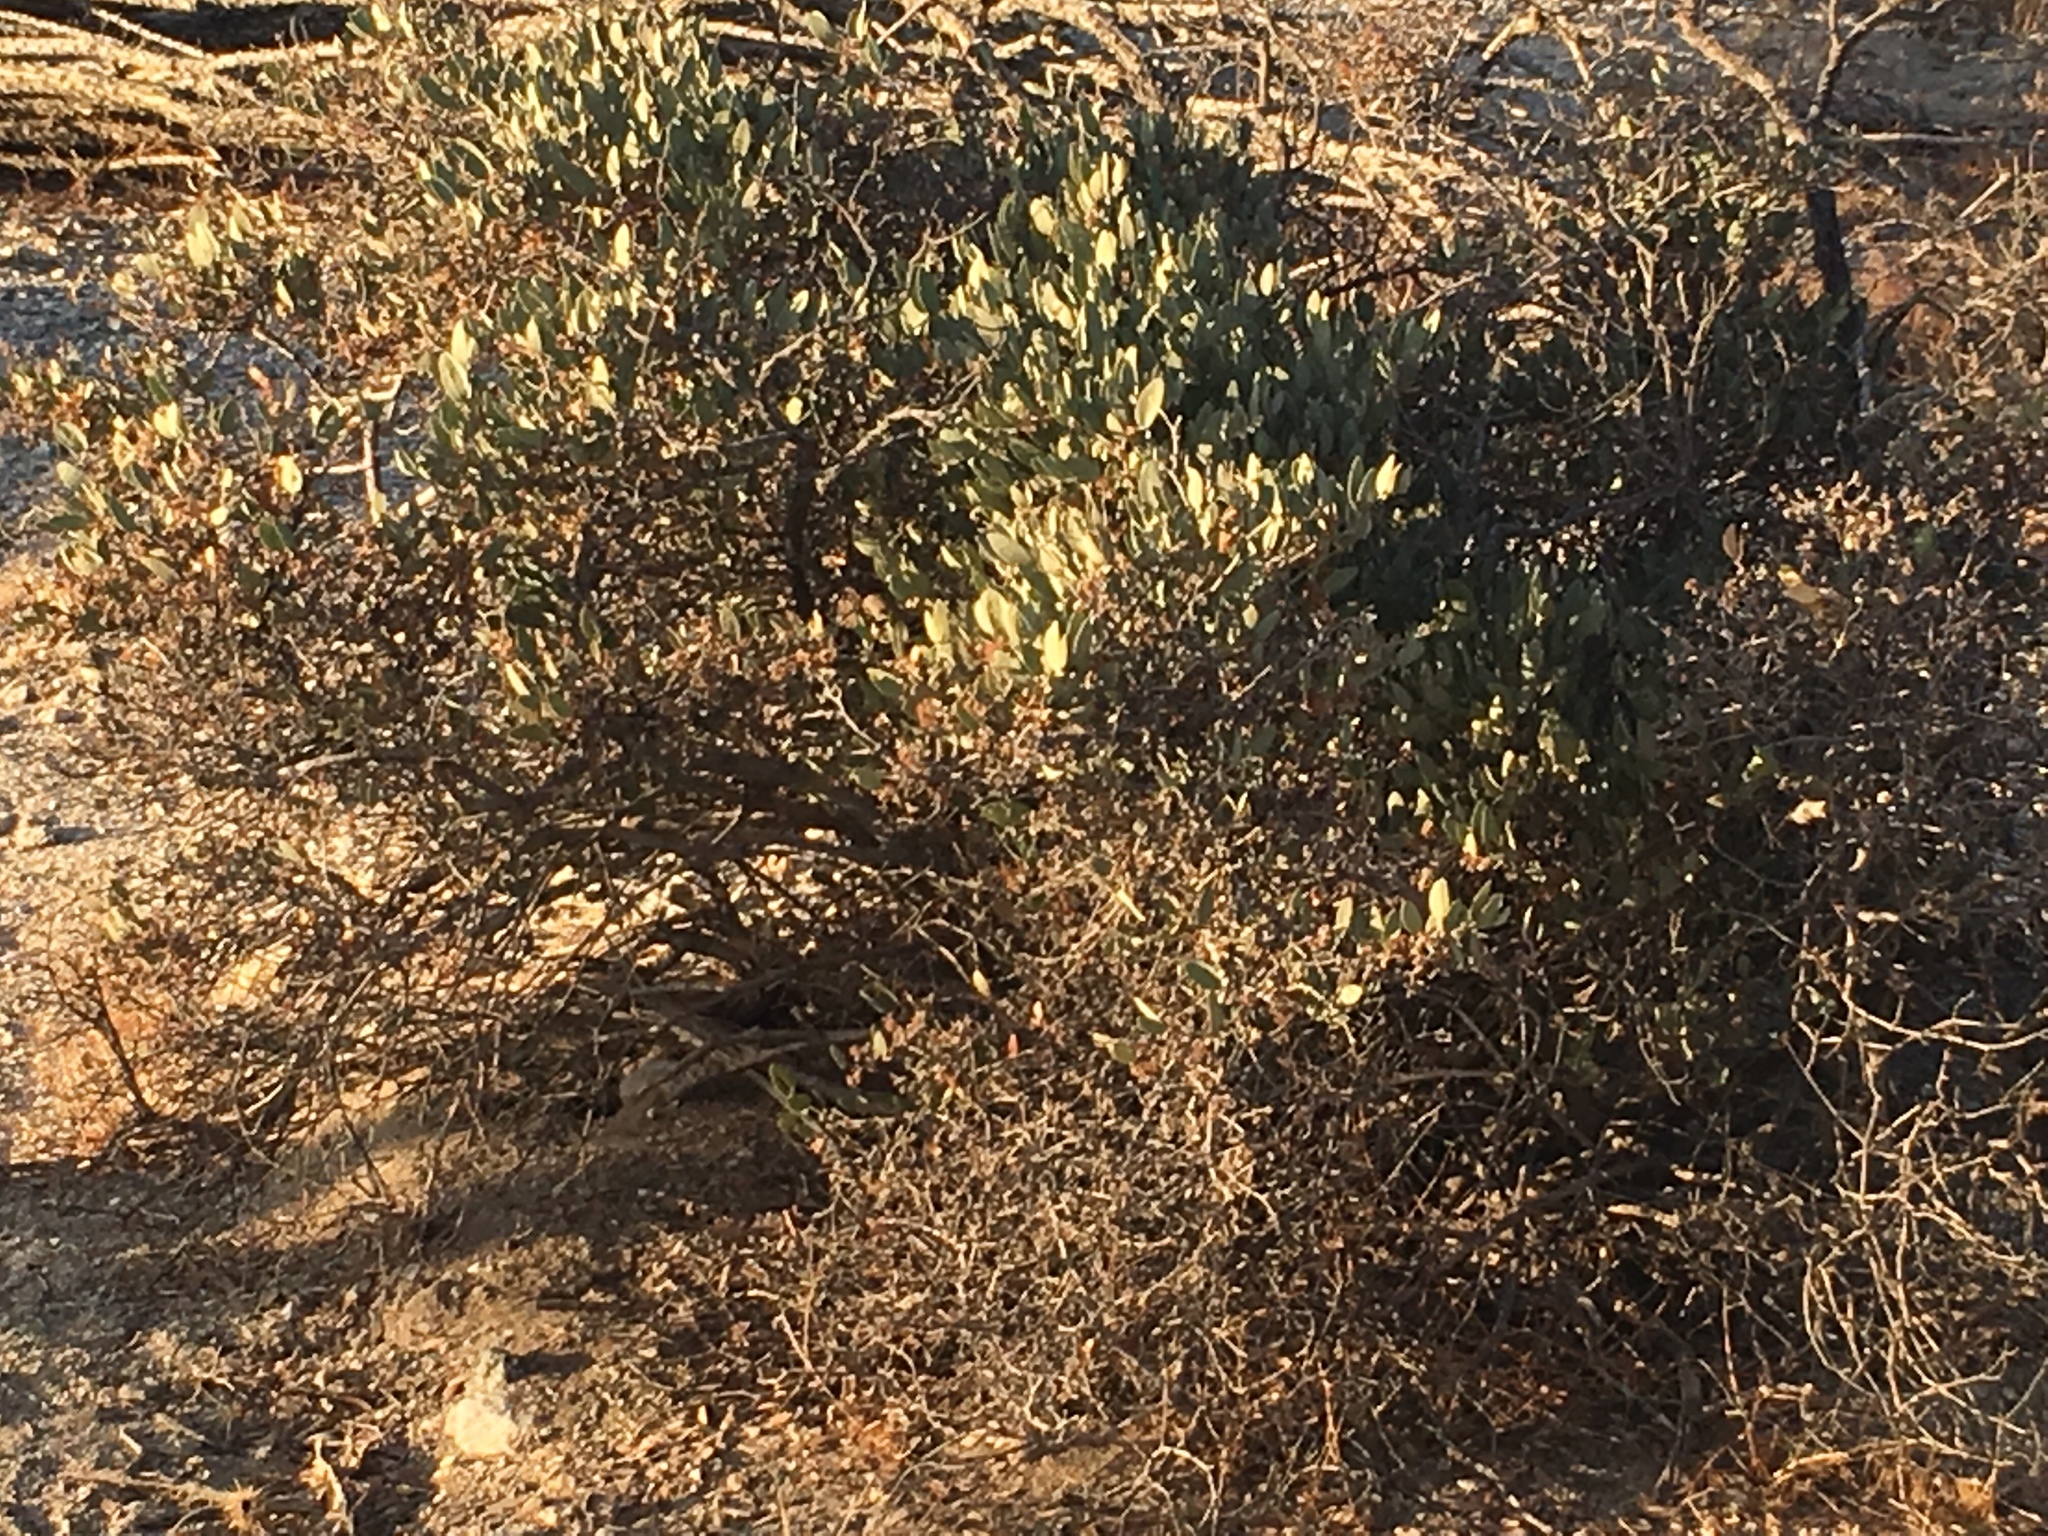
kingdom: Plantae
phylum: Tracheophyta
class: Magnoliopsida
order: Caryophyllales
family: Simmondsiaceae
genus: Simmondsia
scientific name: Simmondsia chinensis
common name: Jojoba
